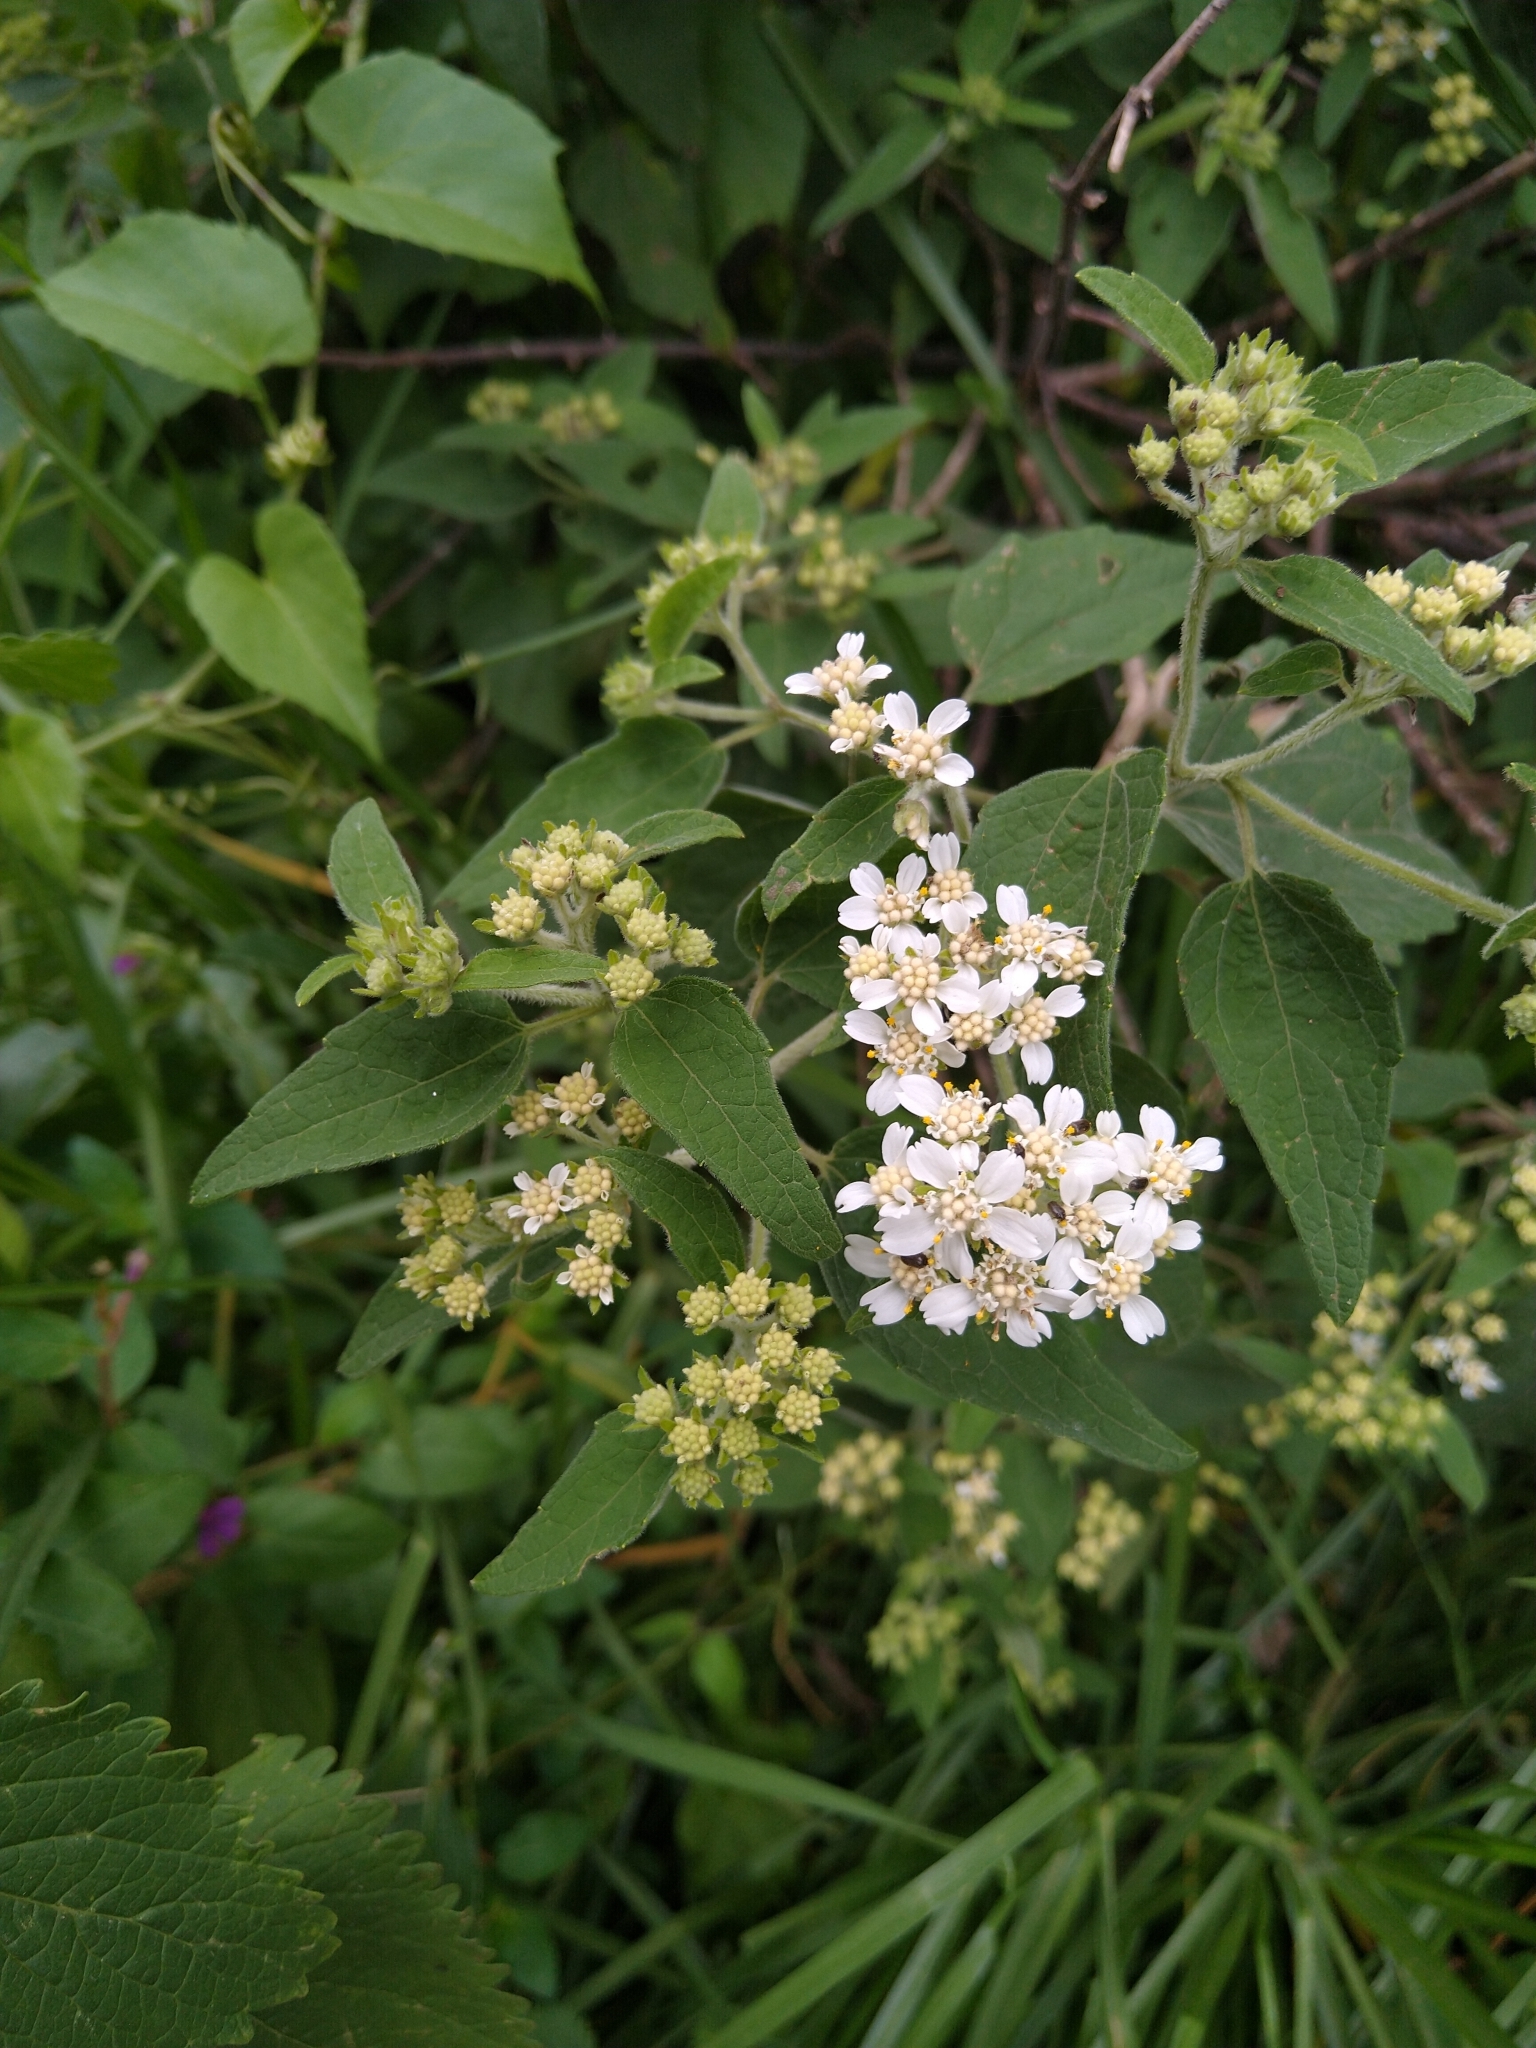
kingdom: Plantae
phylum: Tracheophyta
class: Magnoliopsida
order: Asterales
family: Asteraceae
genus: Montanoa
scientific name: Montanoa tomentosa
